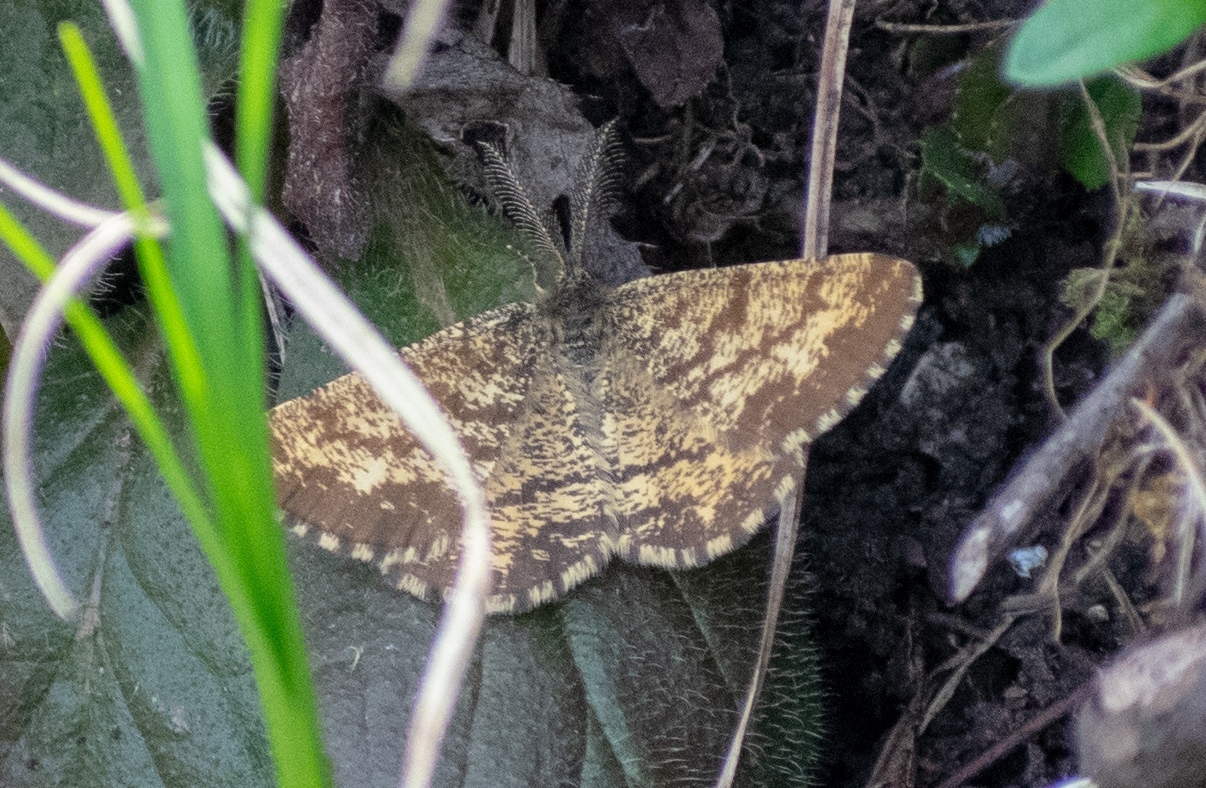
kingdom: Animalia
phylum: Arthropoda
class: Insecta
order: Lepidoptera
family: Geometridae
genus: Ematurga
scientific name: Ematurga atomaria
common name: Common heath
